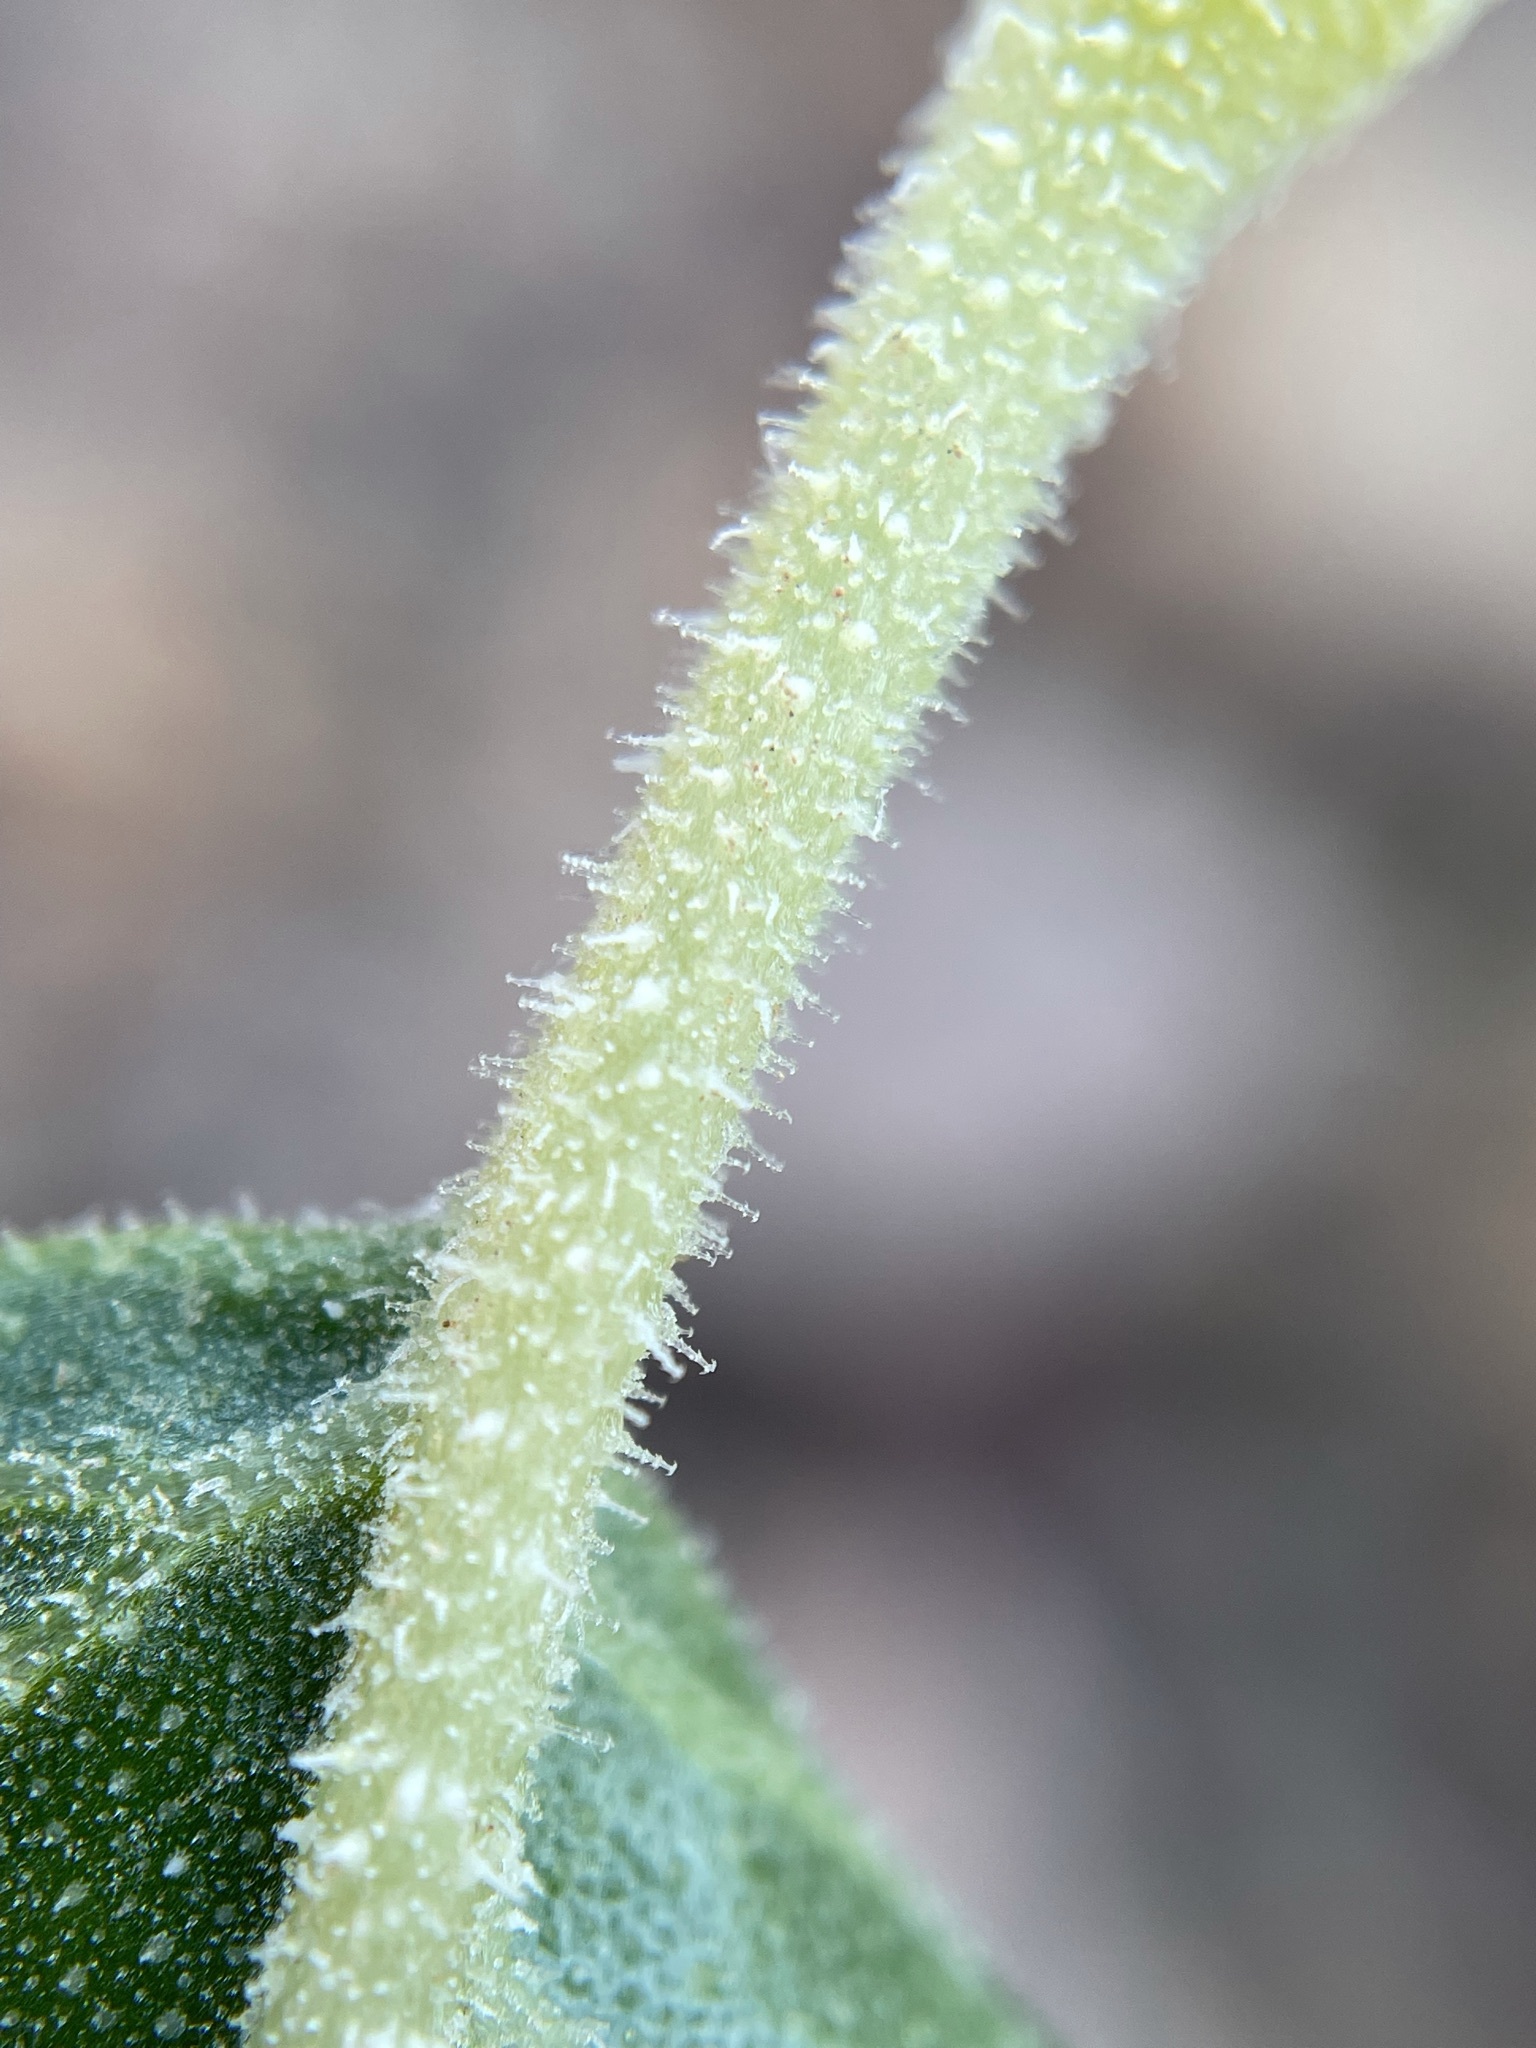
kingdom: Plantae
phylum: Tracheophyta
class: Magnoliopsida
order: Cornales
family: Loasaceae
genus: Kissenia
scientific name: Kissenia capensis
